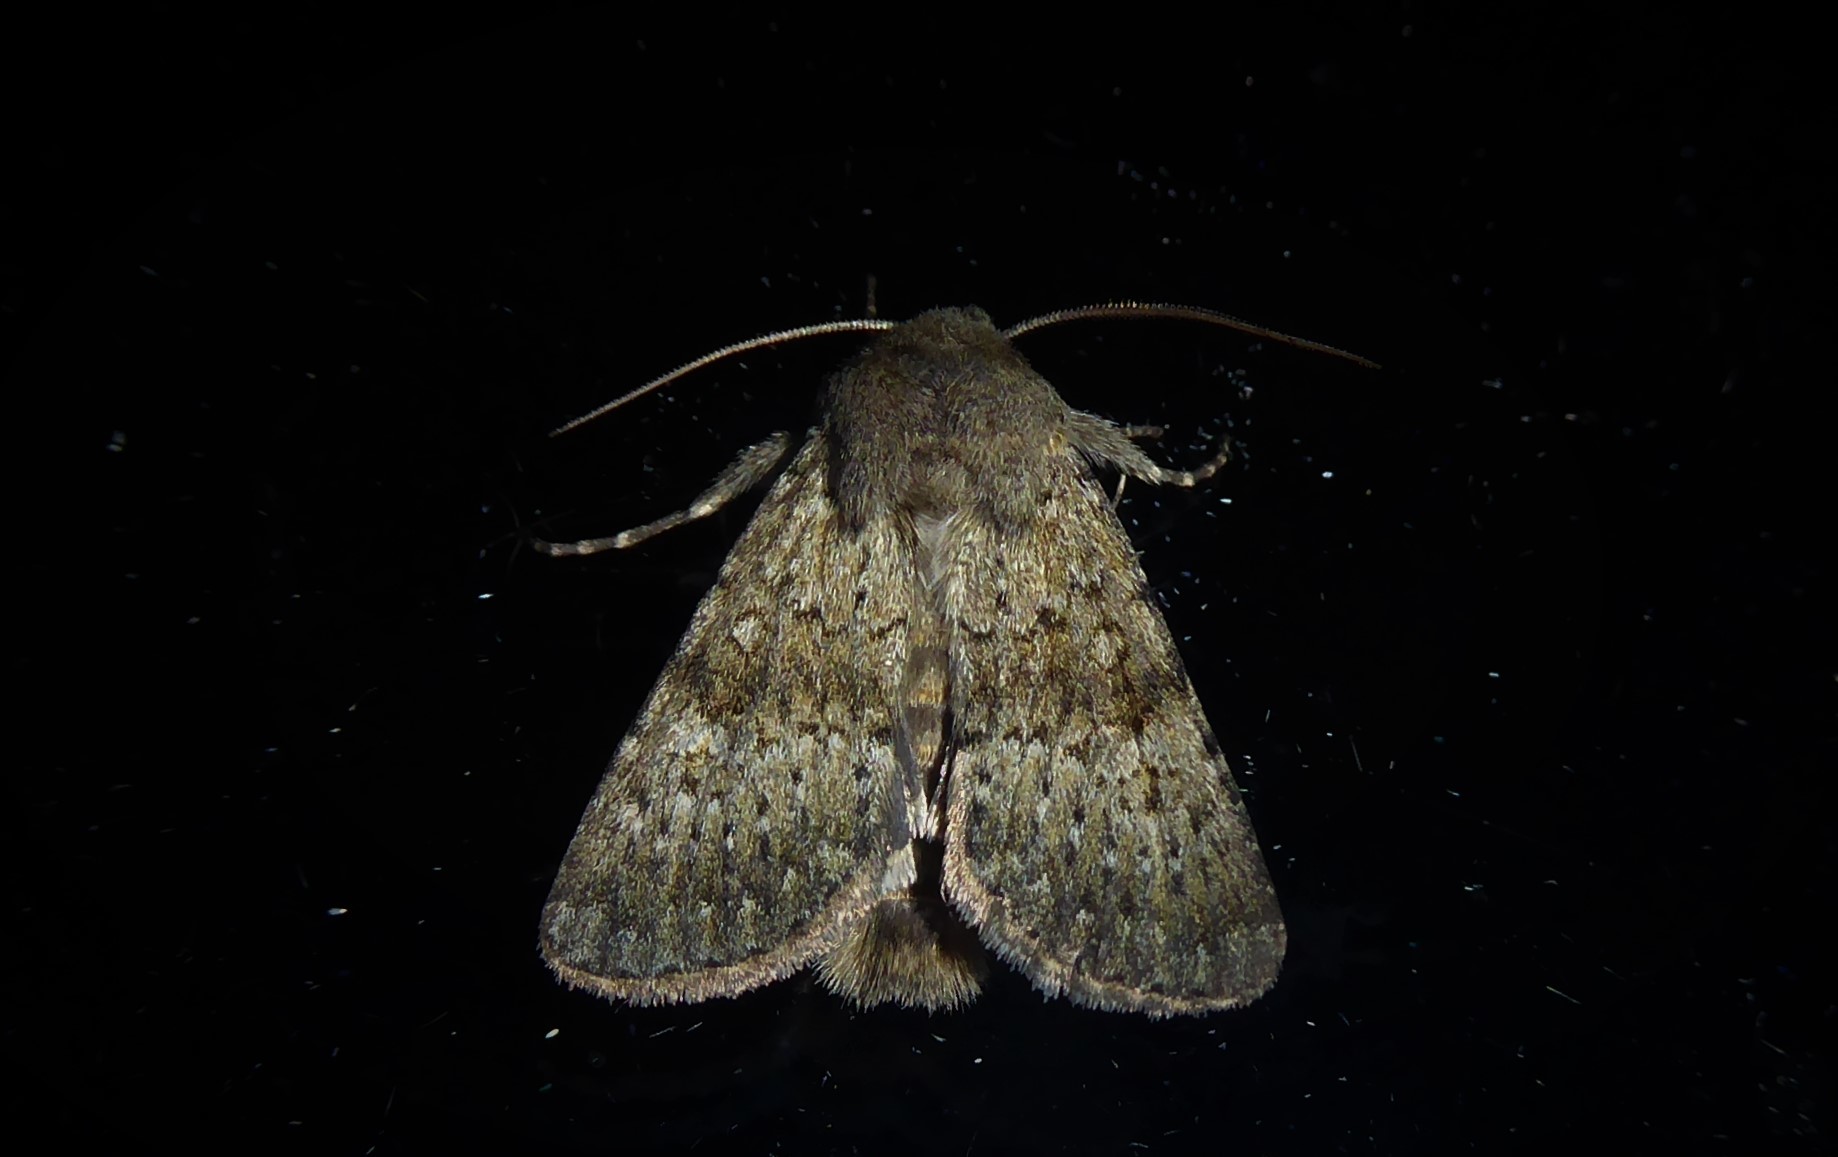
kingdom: Animalia
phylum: Arthropoda
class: Insecta
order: Lepidoptera
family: Noctuidae
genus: Ichneutica
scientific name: Ichneutica moderata
